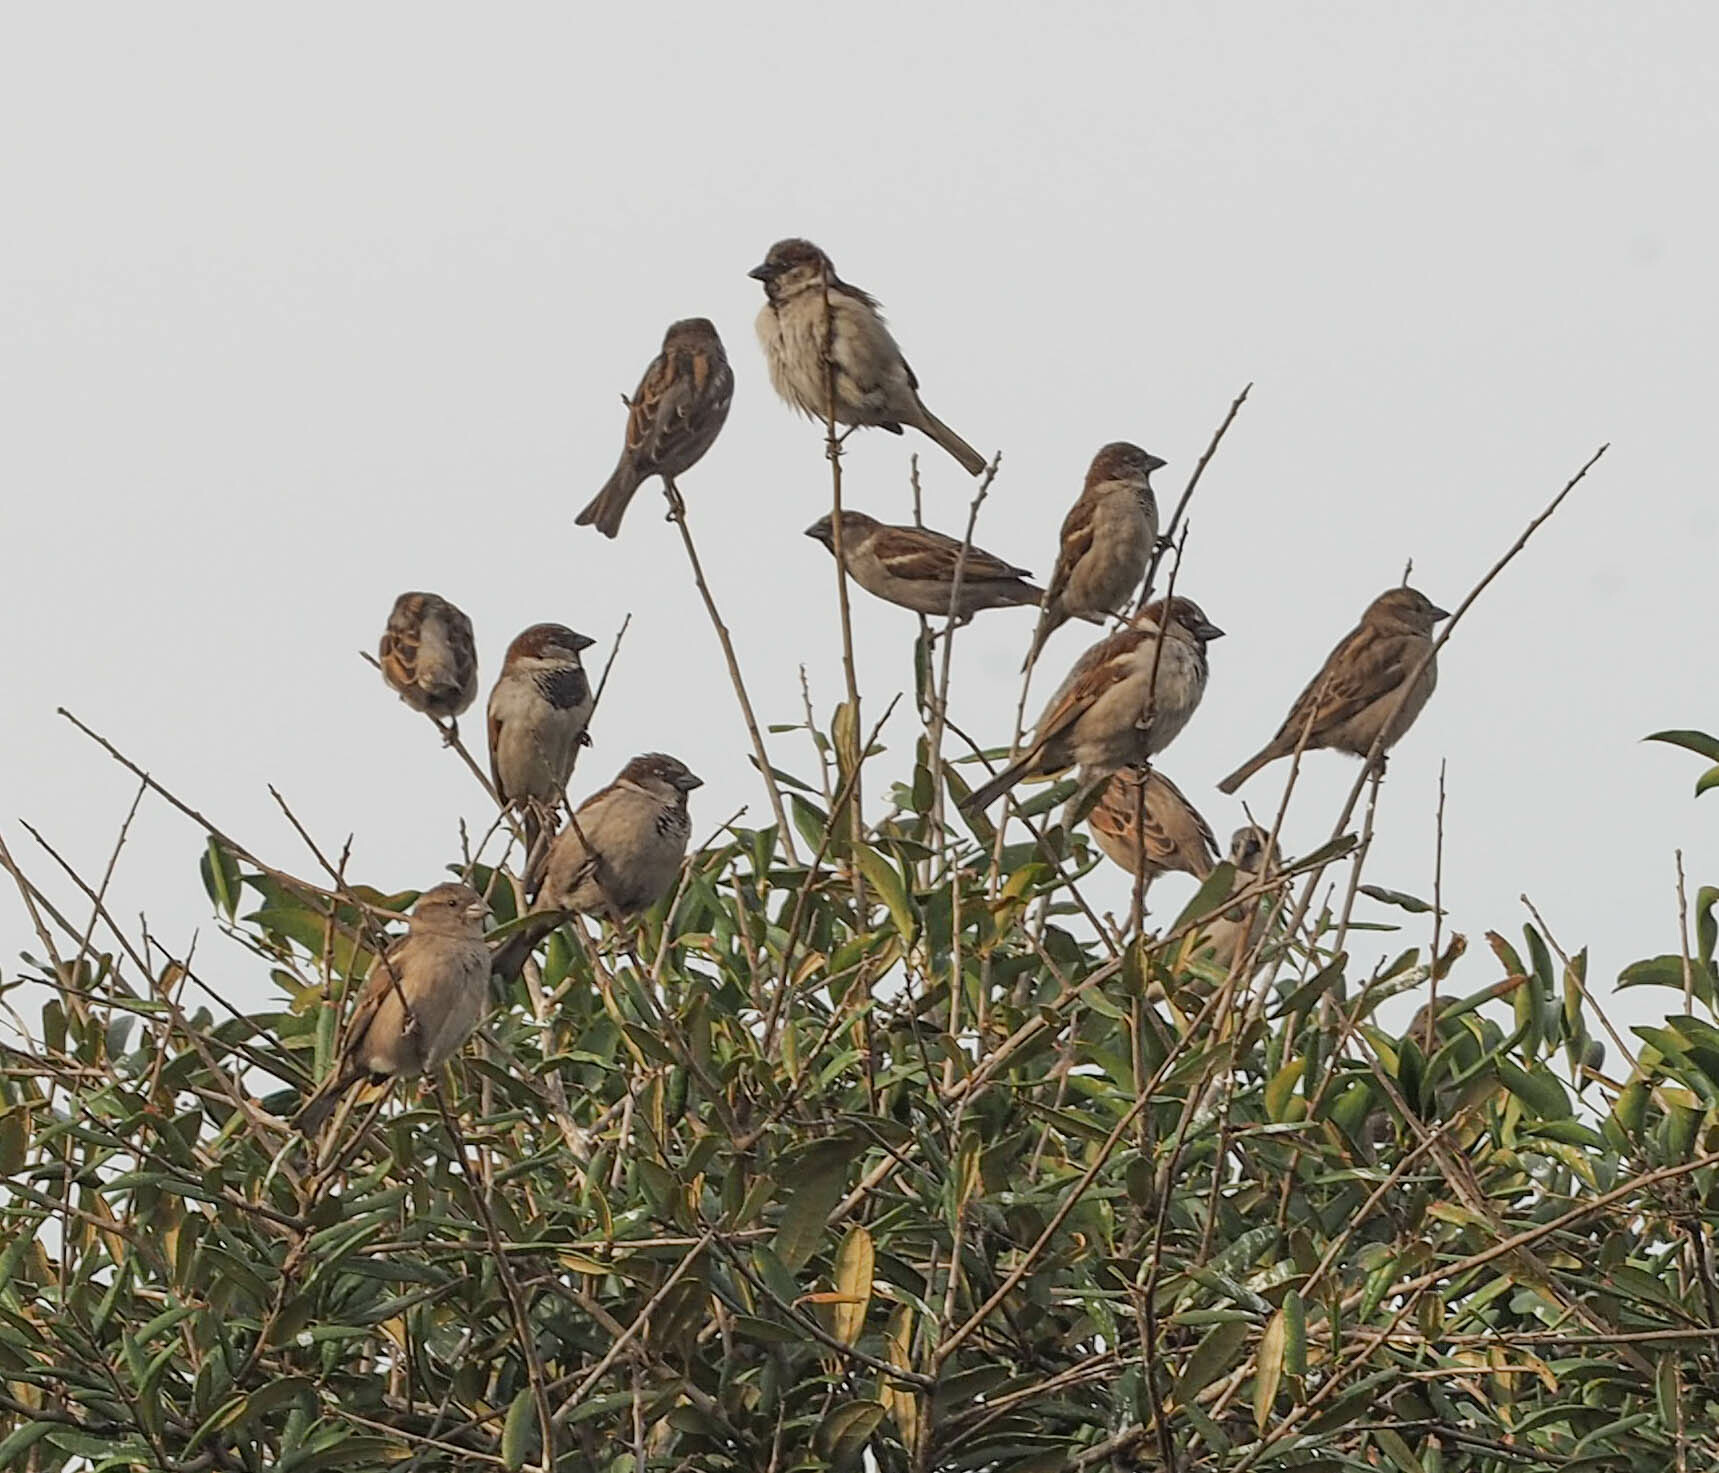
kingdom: Animalia
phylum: Chordata
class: Aves
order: Passeriformes
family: Passeridae
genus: Passer
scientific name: Passer domesticus
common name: House sparrow
